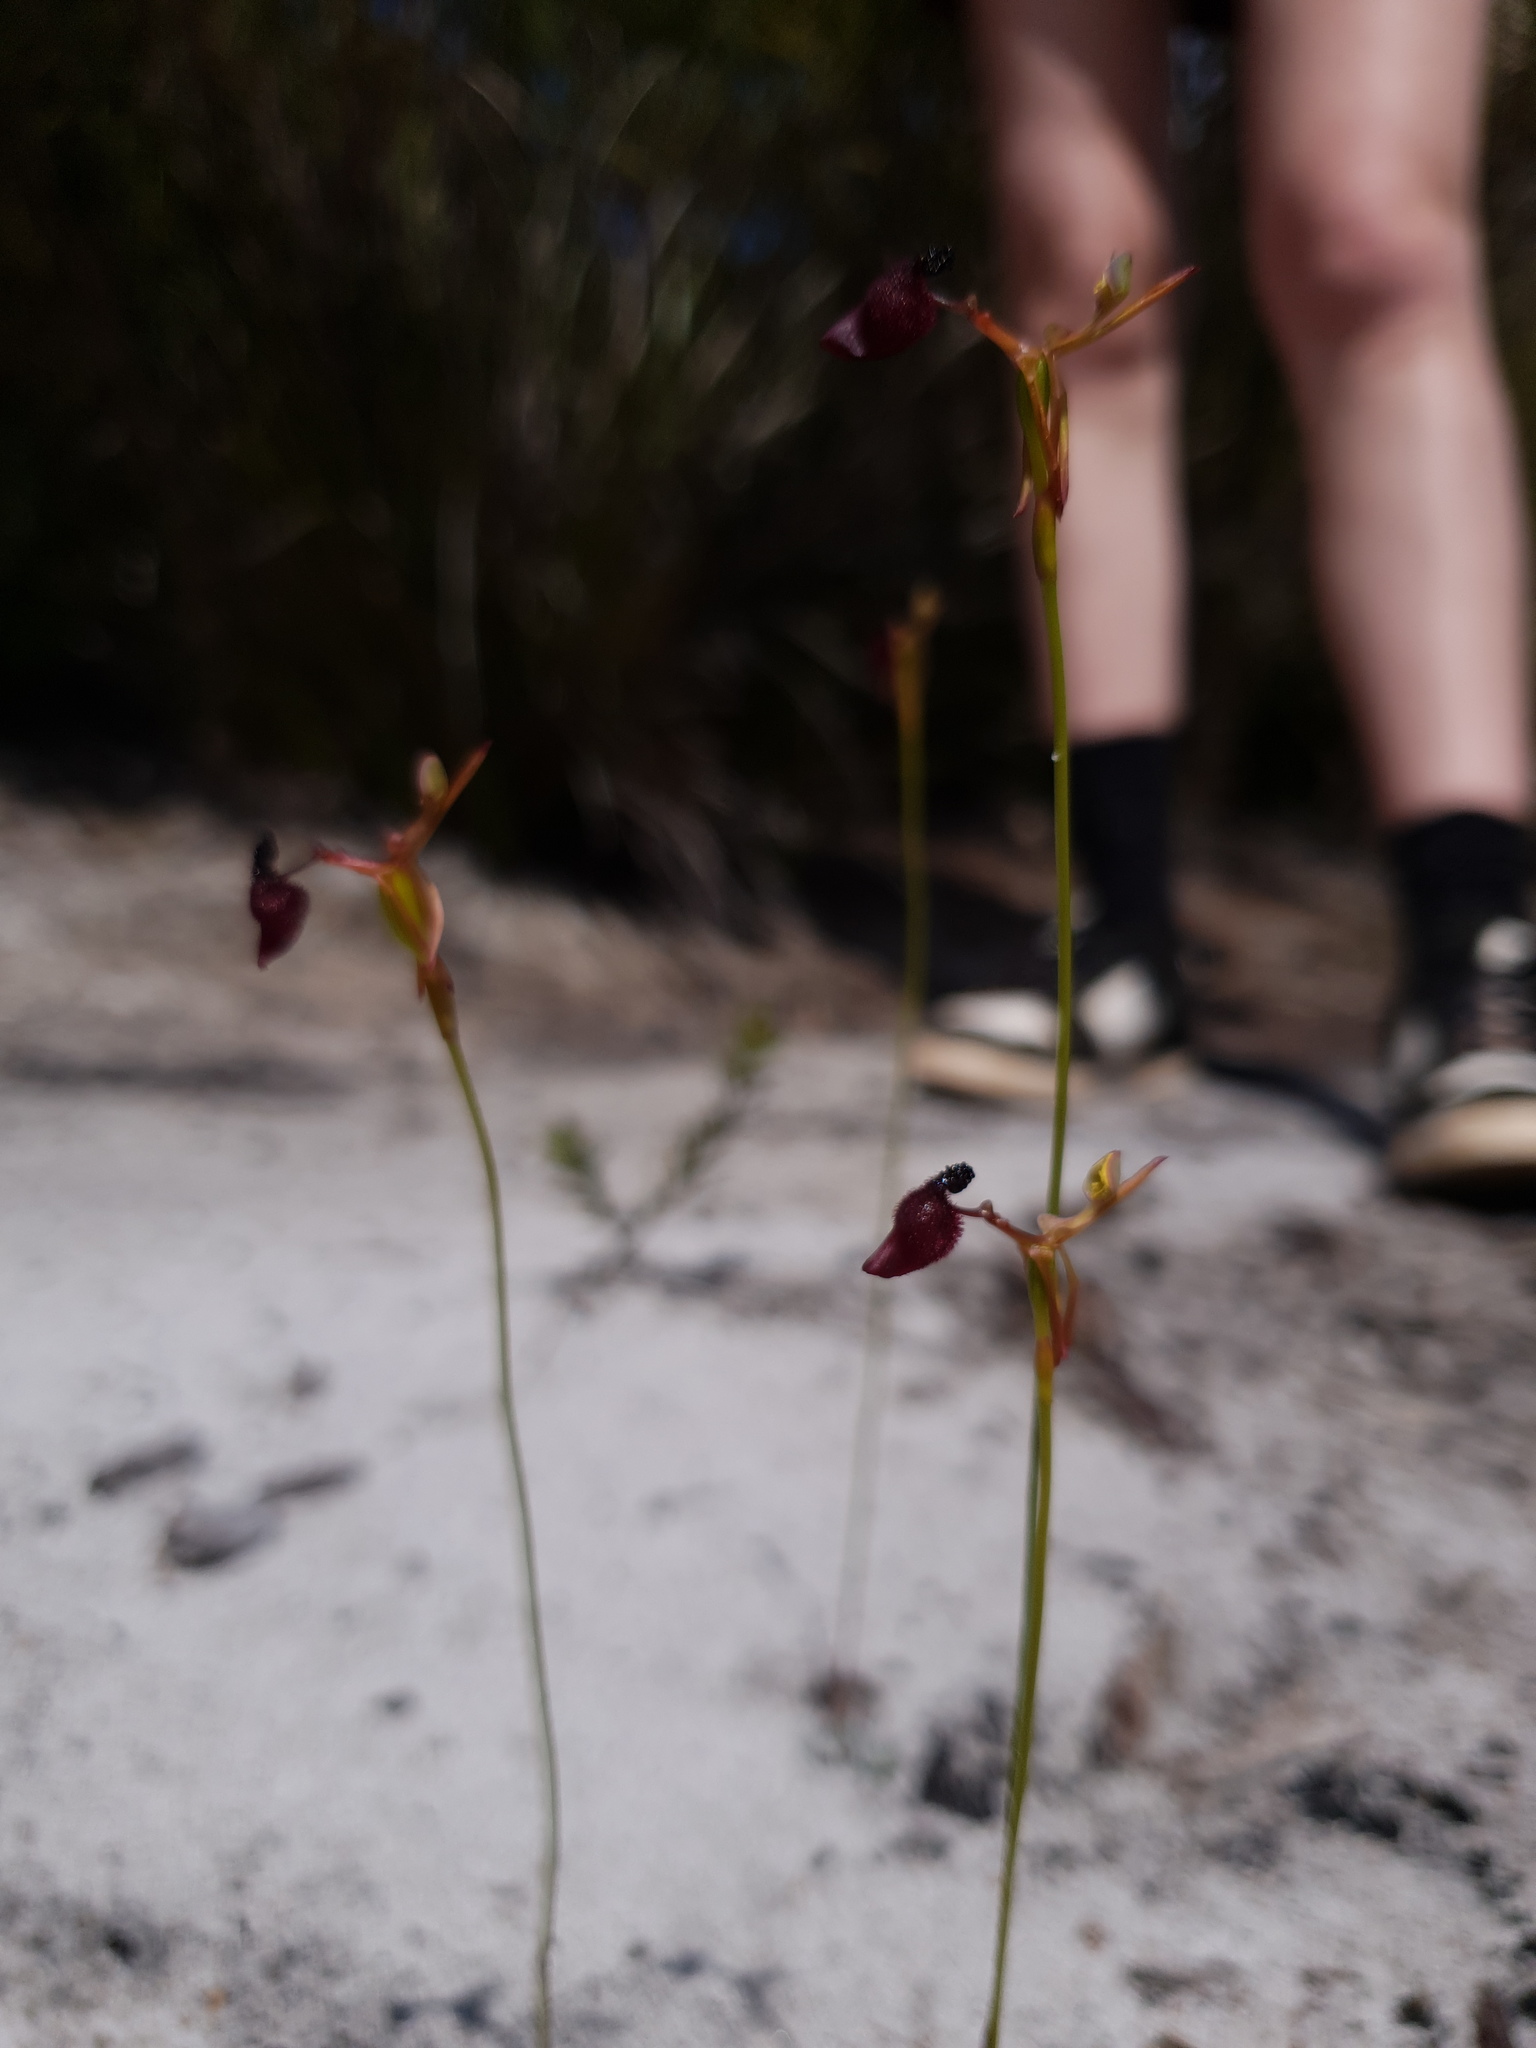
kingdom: Plantae
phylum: Tracheophyta
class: Liliopsida
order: Asparagales
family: Orchidaceae
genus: Drakaea
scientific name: Drakaea glyptodon
